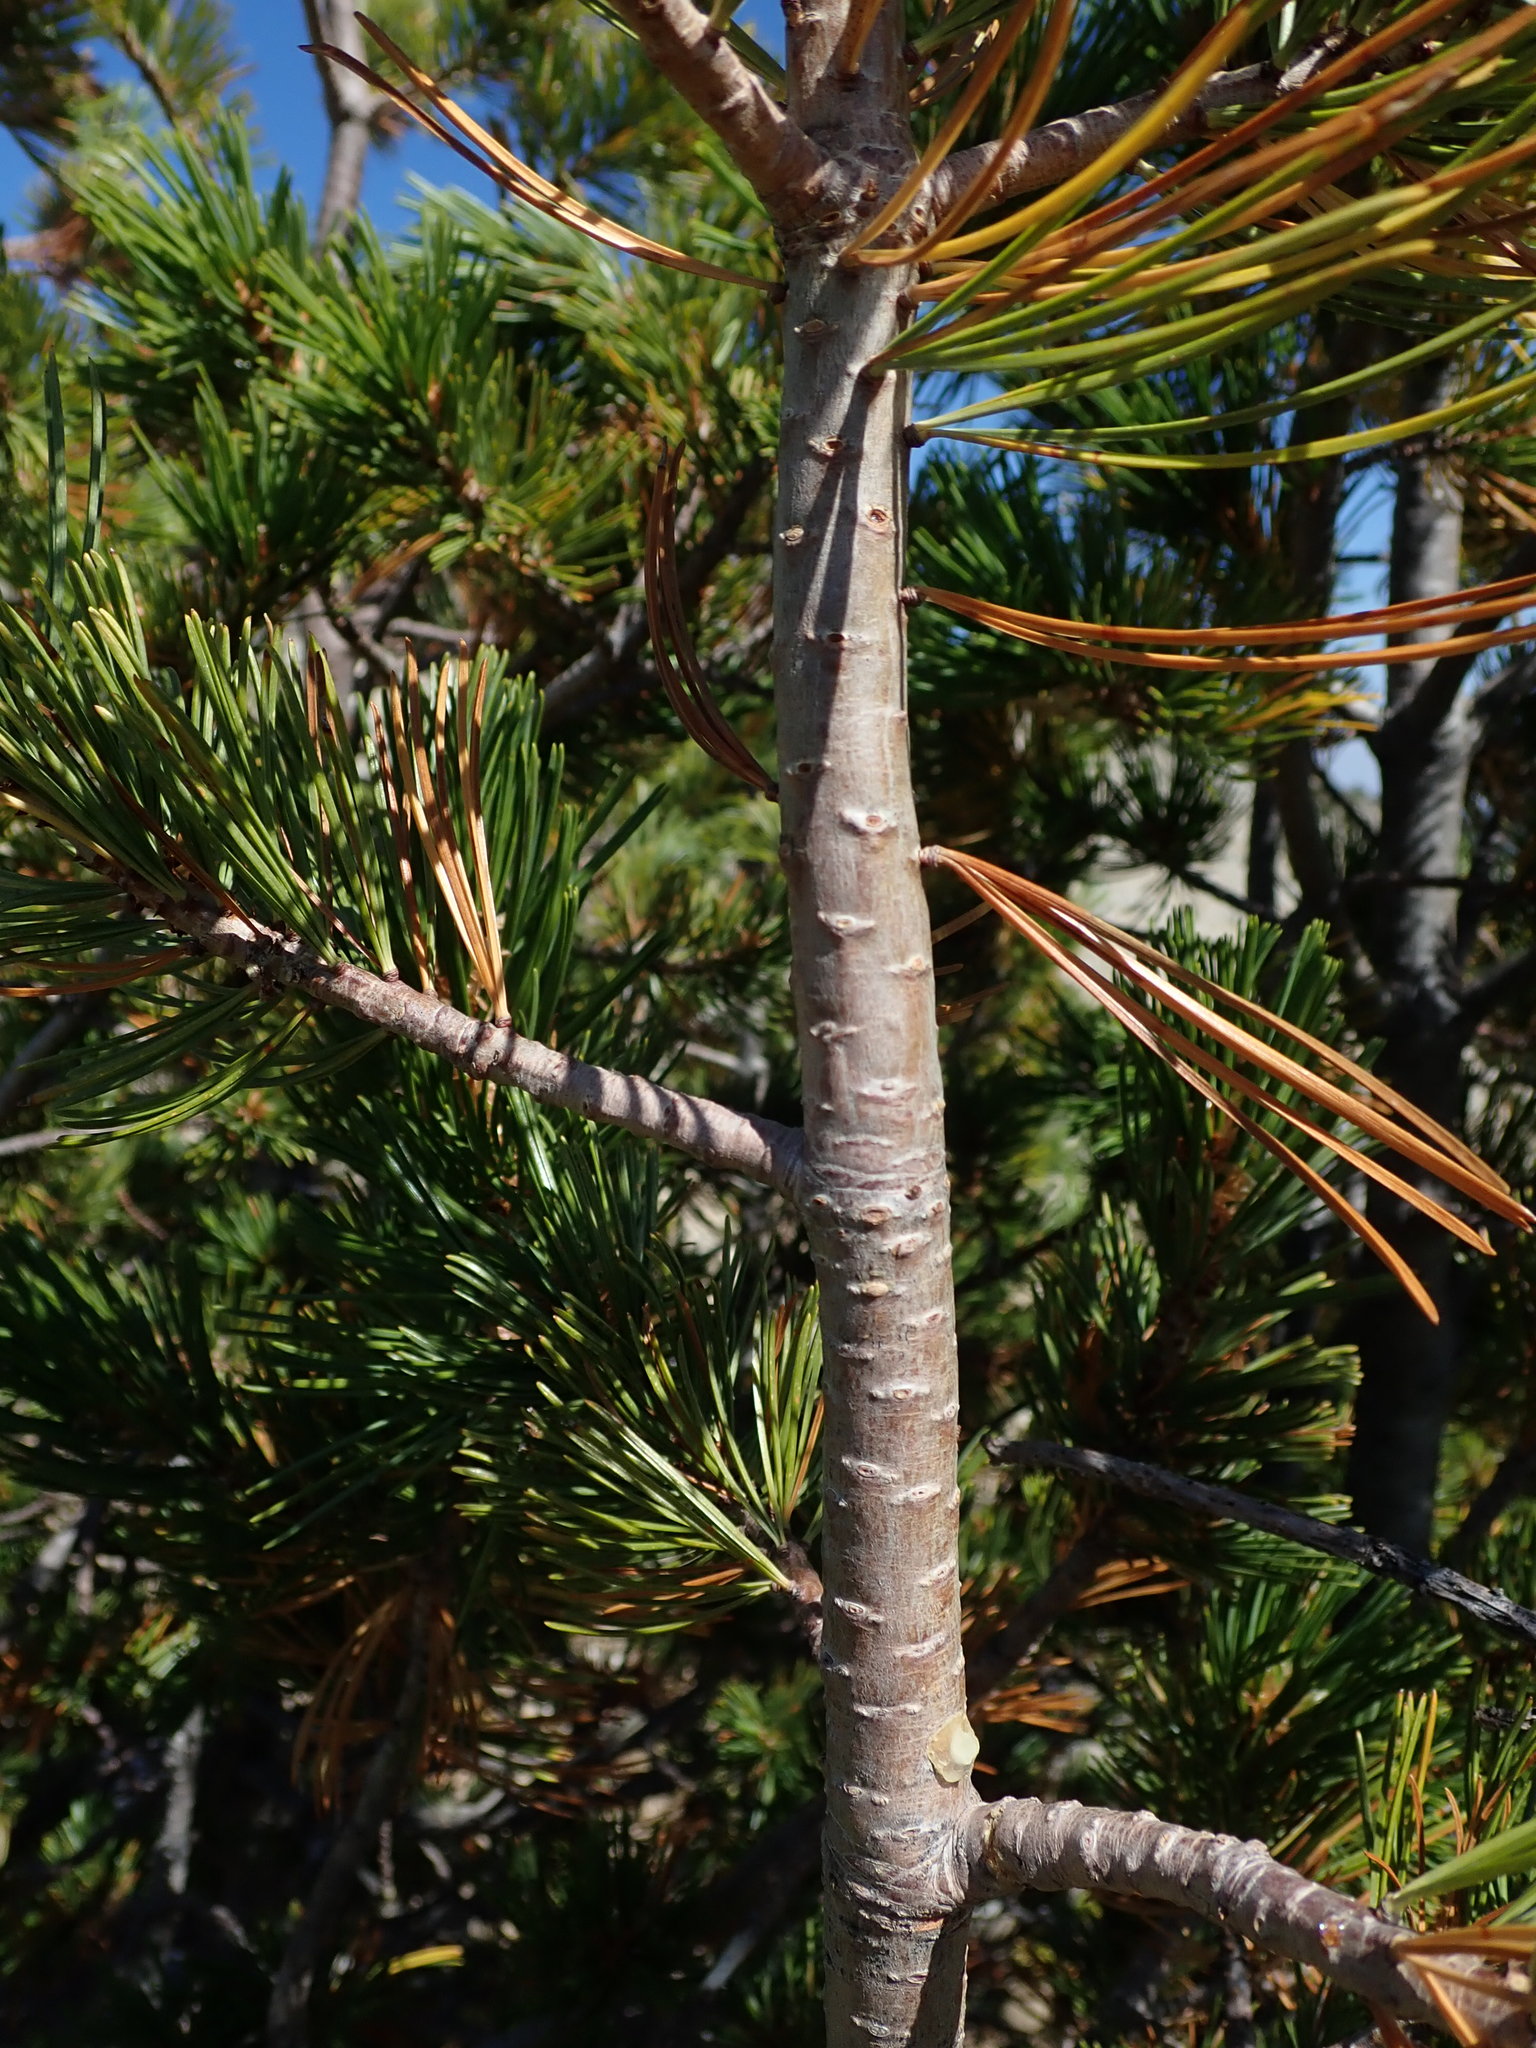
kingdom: Plantae
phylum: Tracheophyta
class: Pinopsida
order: Pinales
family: Pinaceae
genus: Pinus
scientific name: Pinus albicaulis
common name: Whitebark pine
